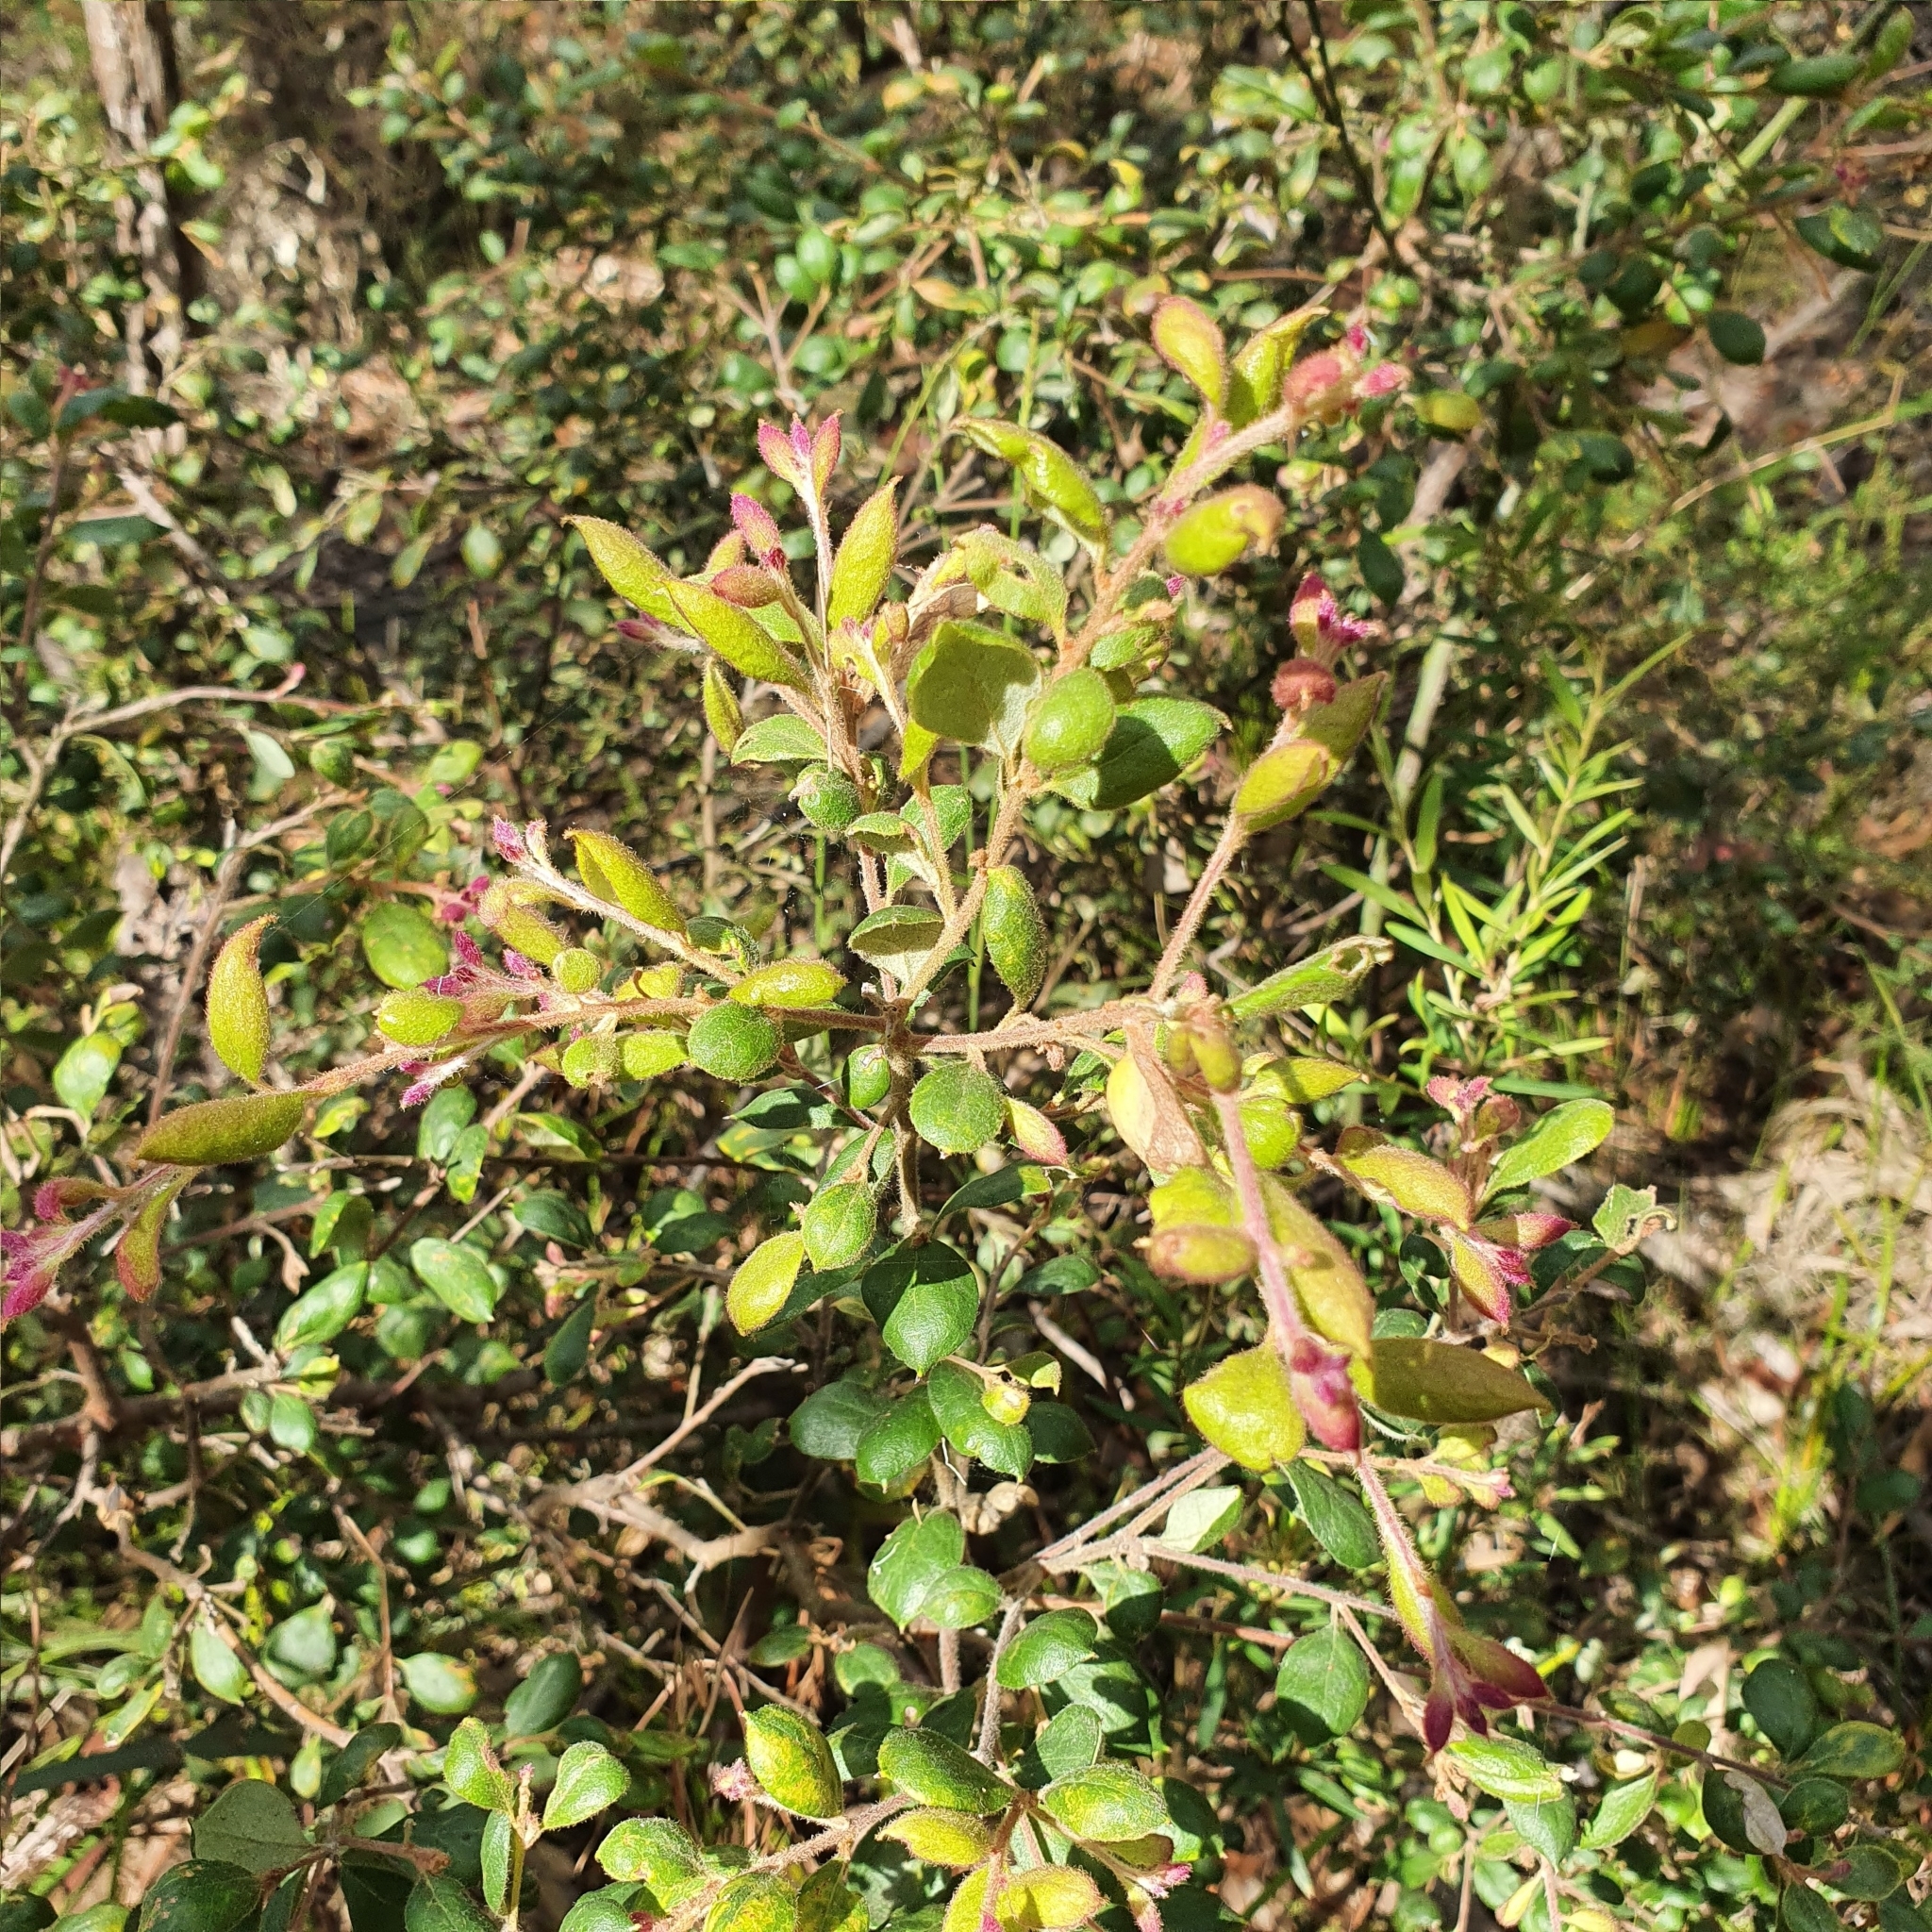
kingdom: Plantae
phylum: Tracheophyta
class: Magnoliopsida
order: Proteales
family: Proteaceae
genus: Grevillea
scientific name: Grevillea mucronulata
